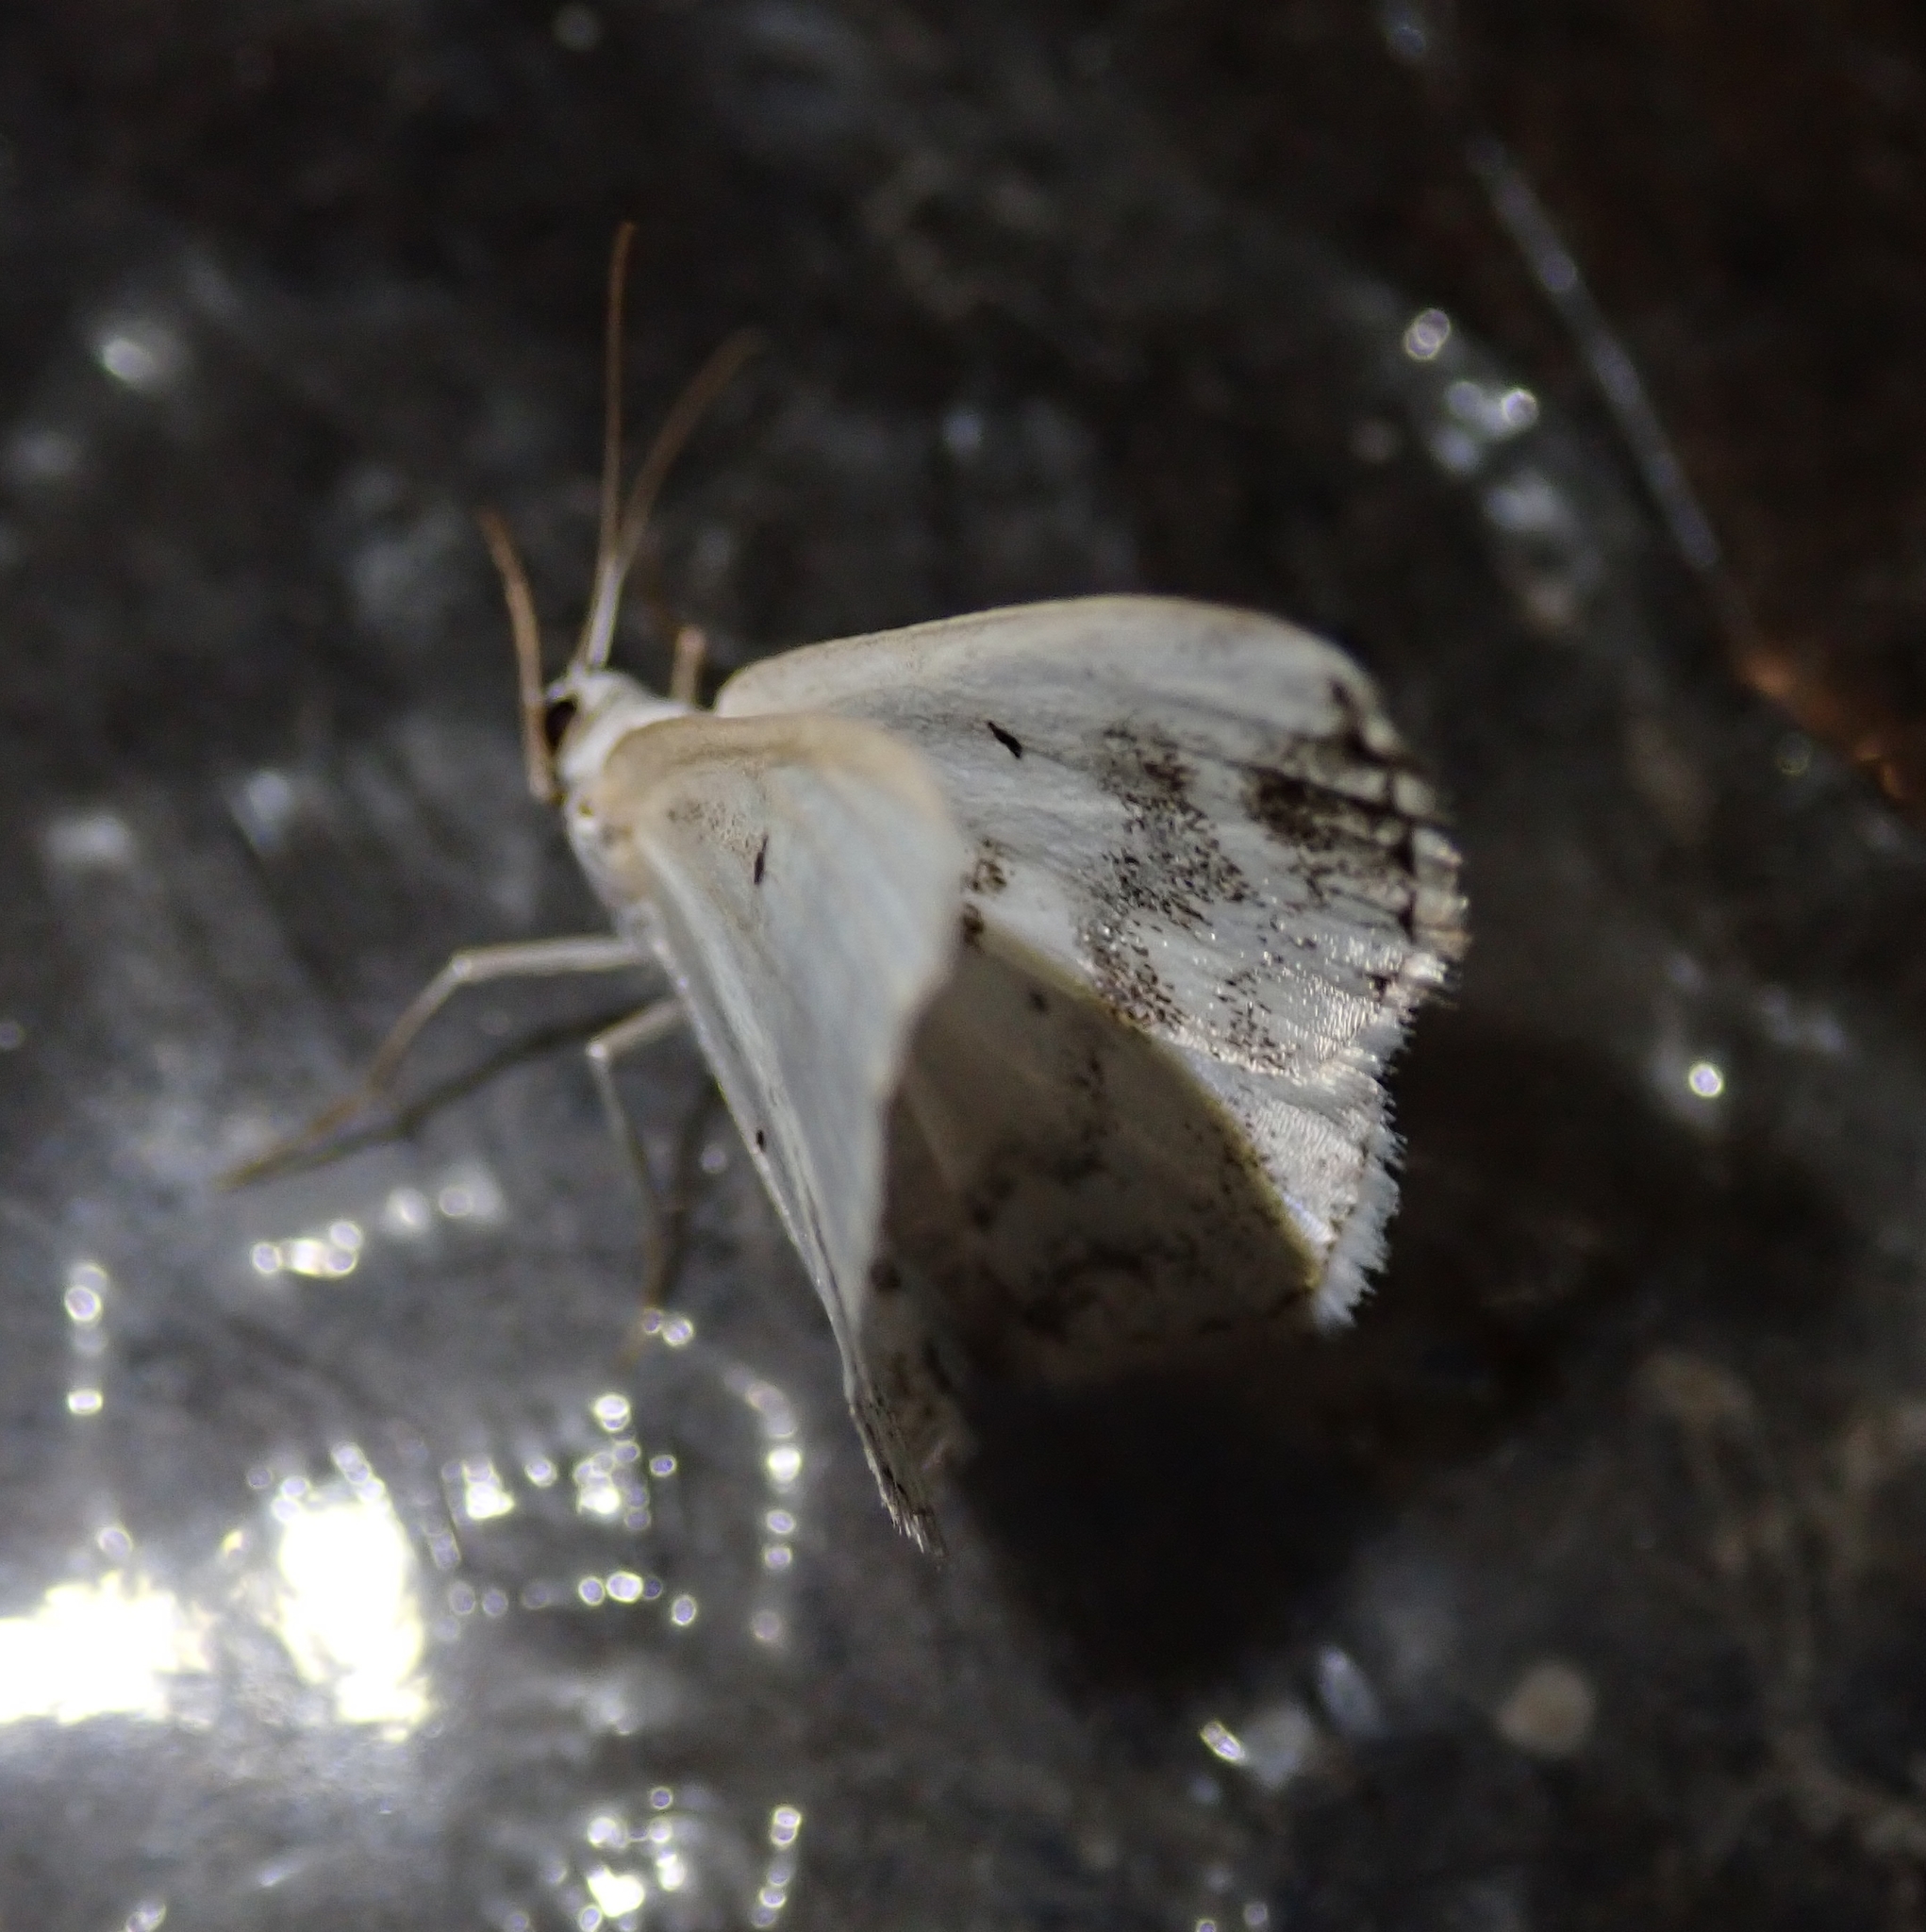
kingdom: Animalia
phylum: Arthropoda
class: Insecta
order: Lepidoptera
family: Geometridae
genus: Lomographa
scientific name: Lomographa temerata
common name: Clouded silver
